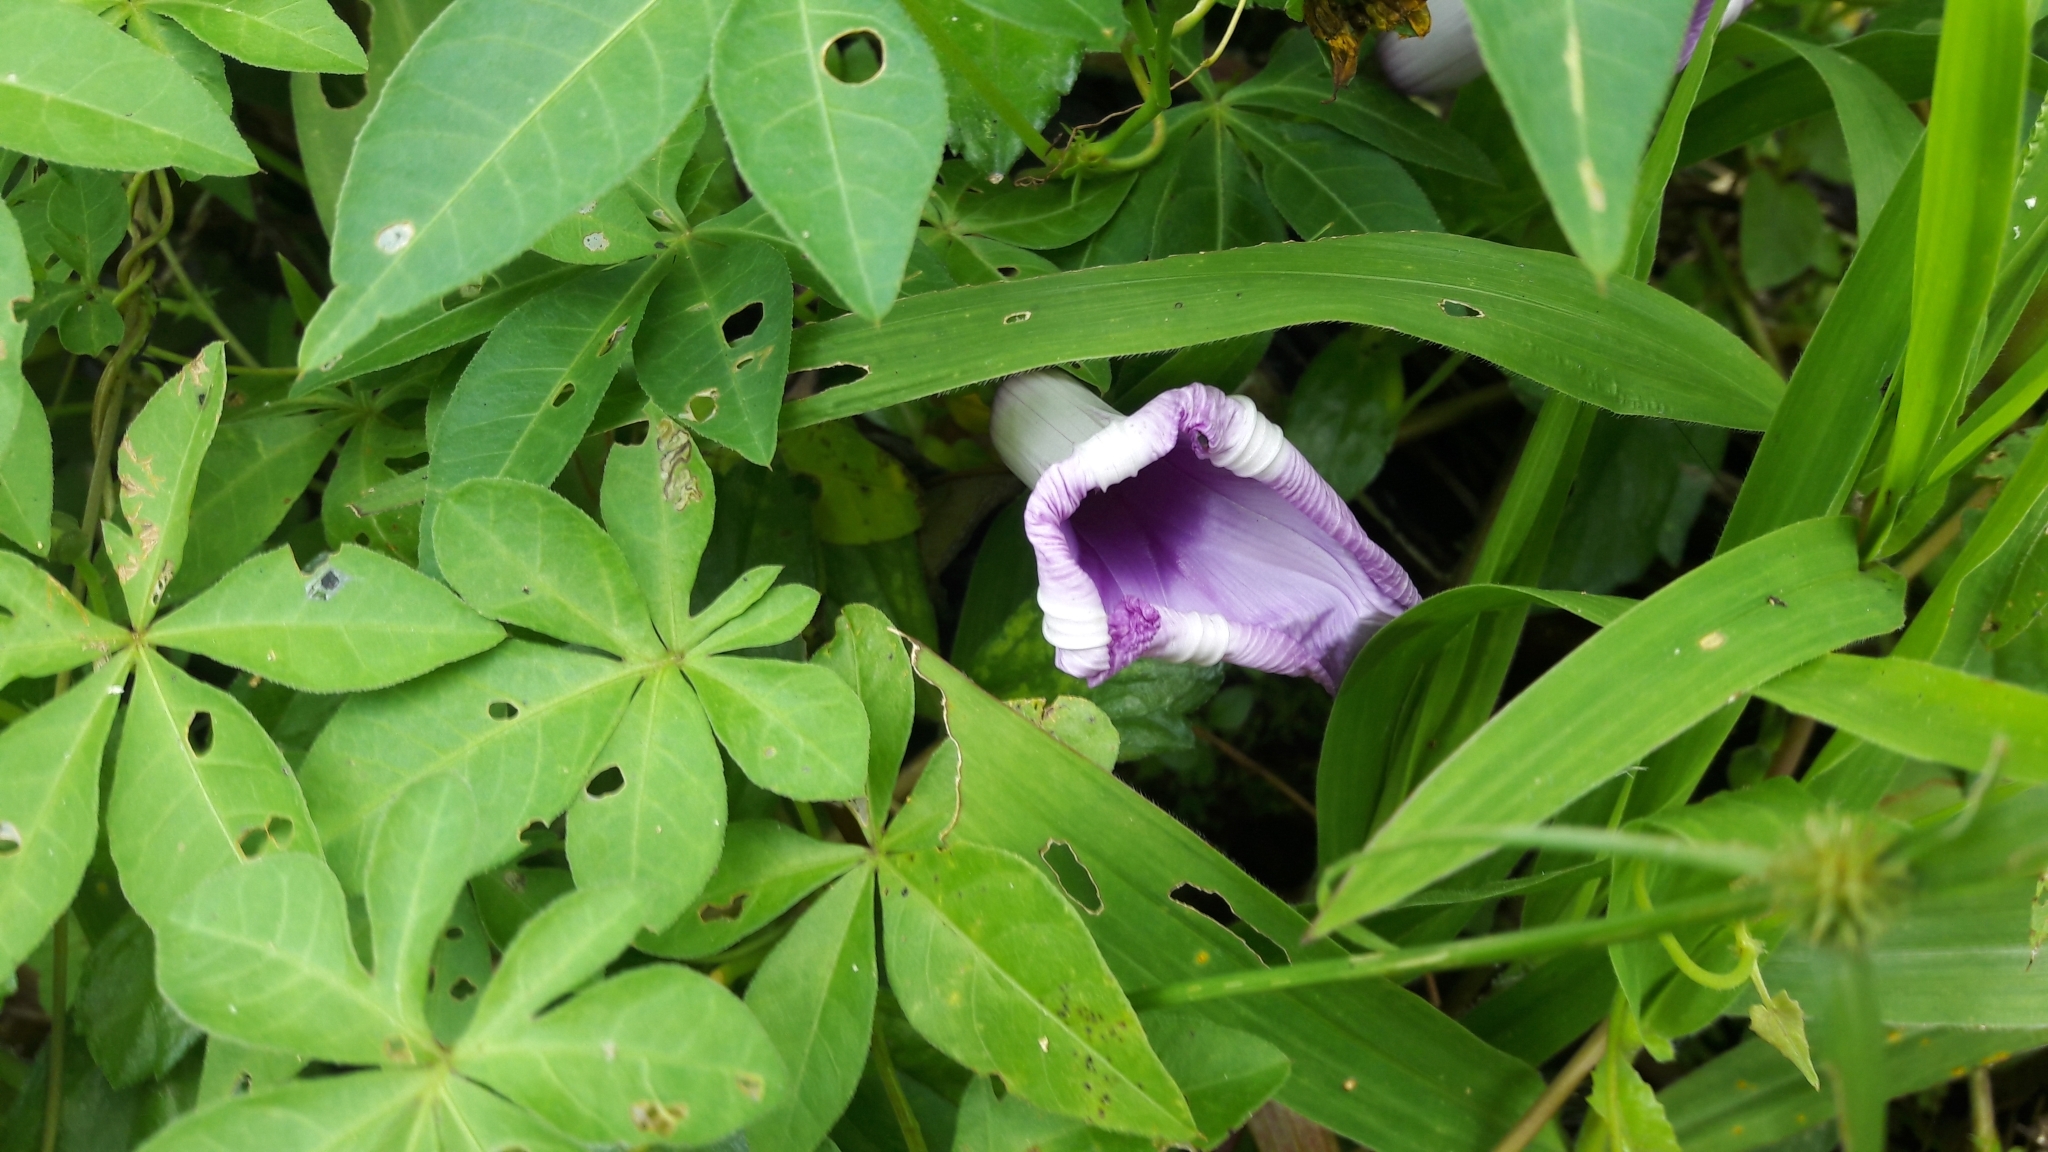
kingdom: Plantae
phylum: Tracheophyta
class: Magnoliopsida
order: Solanales
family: Convolvulaceae
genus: Ipomoea
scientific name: Ipomoea cairica
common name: Mile a minute vine
